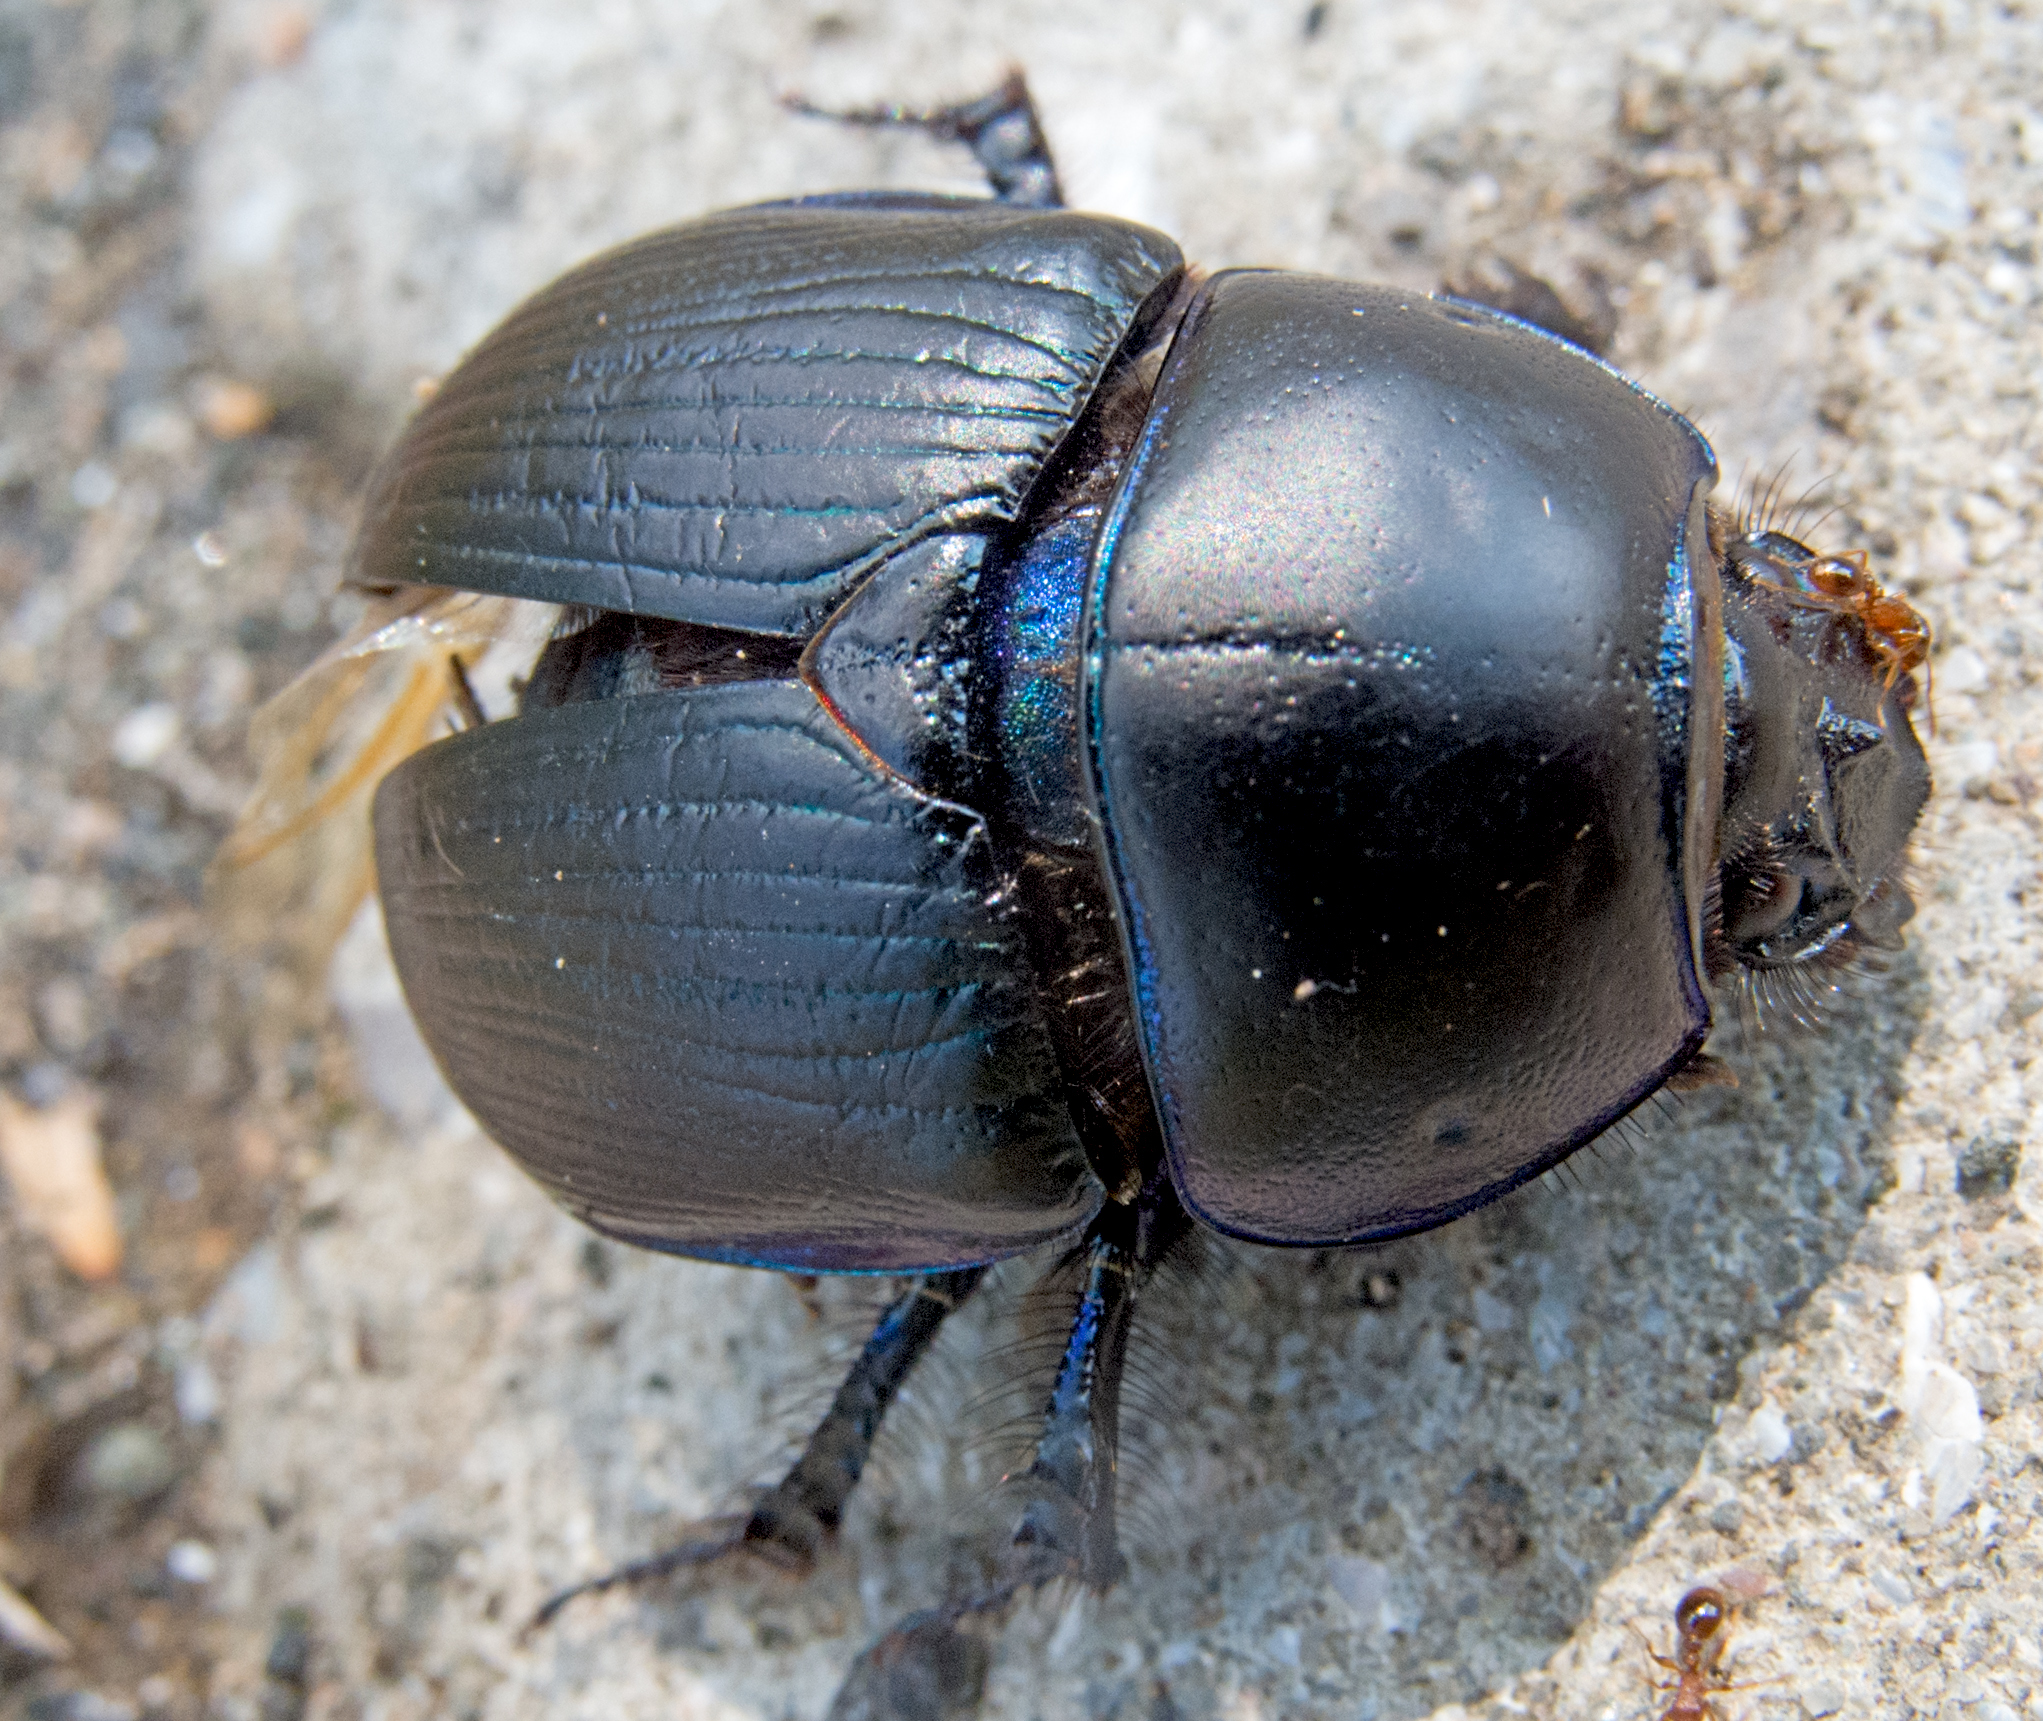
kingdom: Animalia
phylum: Arthropoda
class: Insecta
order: Coleoptera
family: Geotrupidae
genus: Anoplotrupes
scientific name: Anoplotrupes stercorosus
